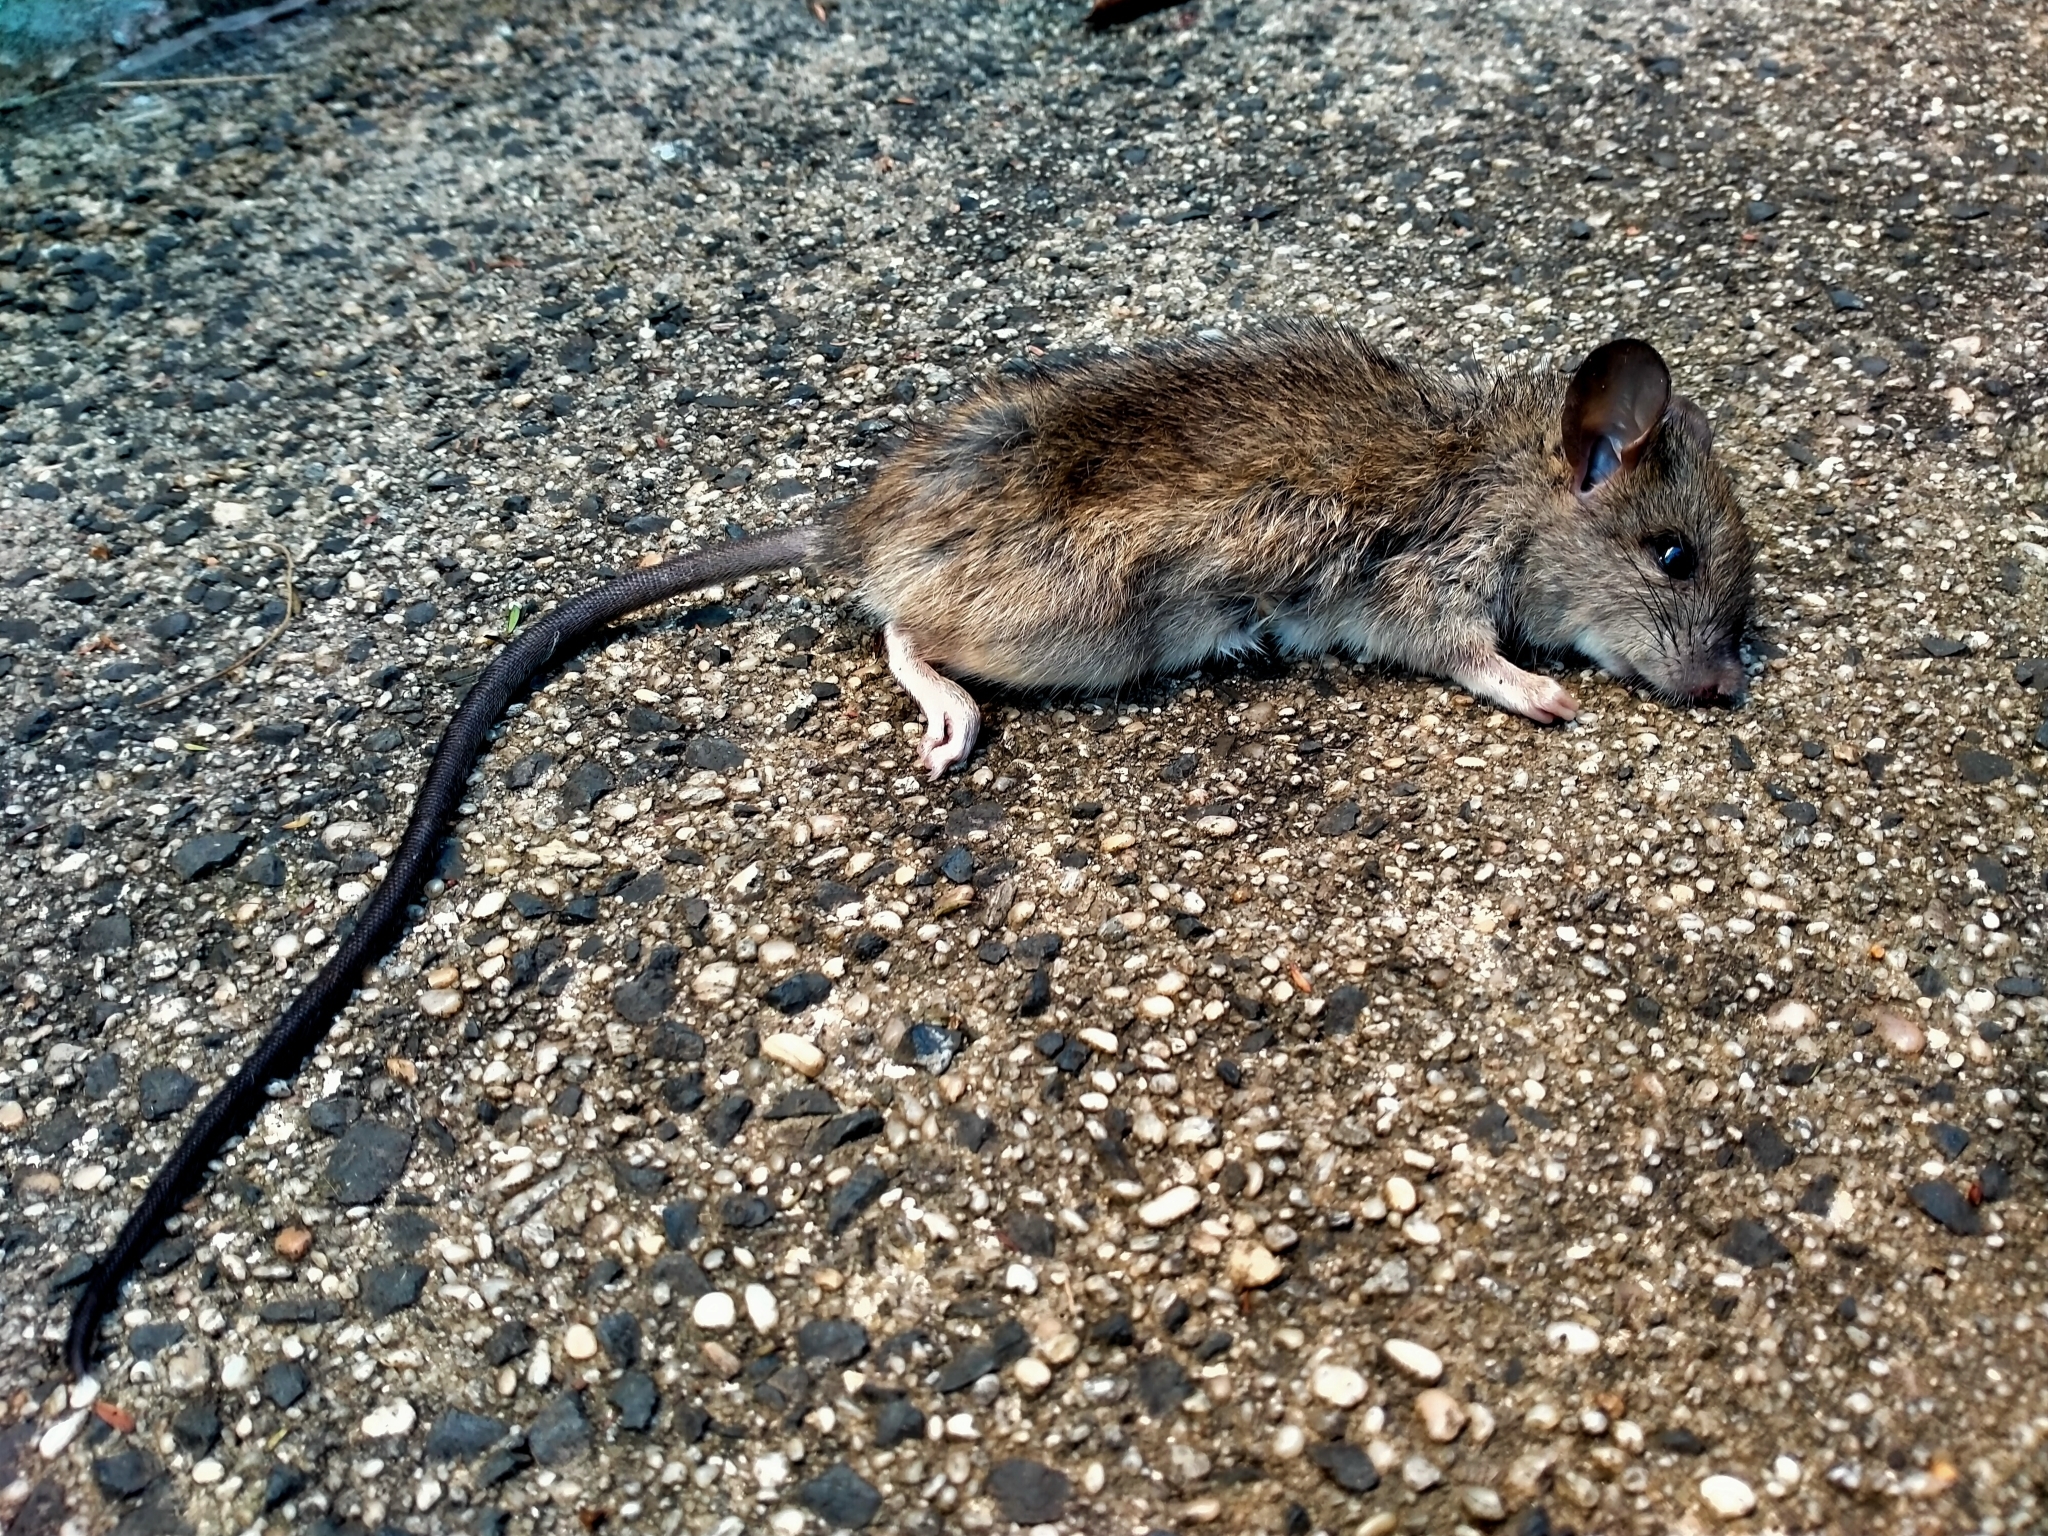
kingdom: Animalia
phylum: Chordata
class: Mammalia
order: Rodentia
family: Muridae
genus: Rattus
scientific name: Rattus rattus
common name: Black rat
